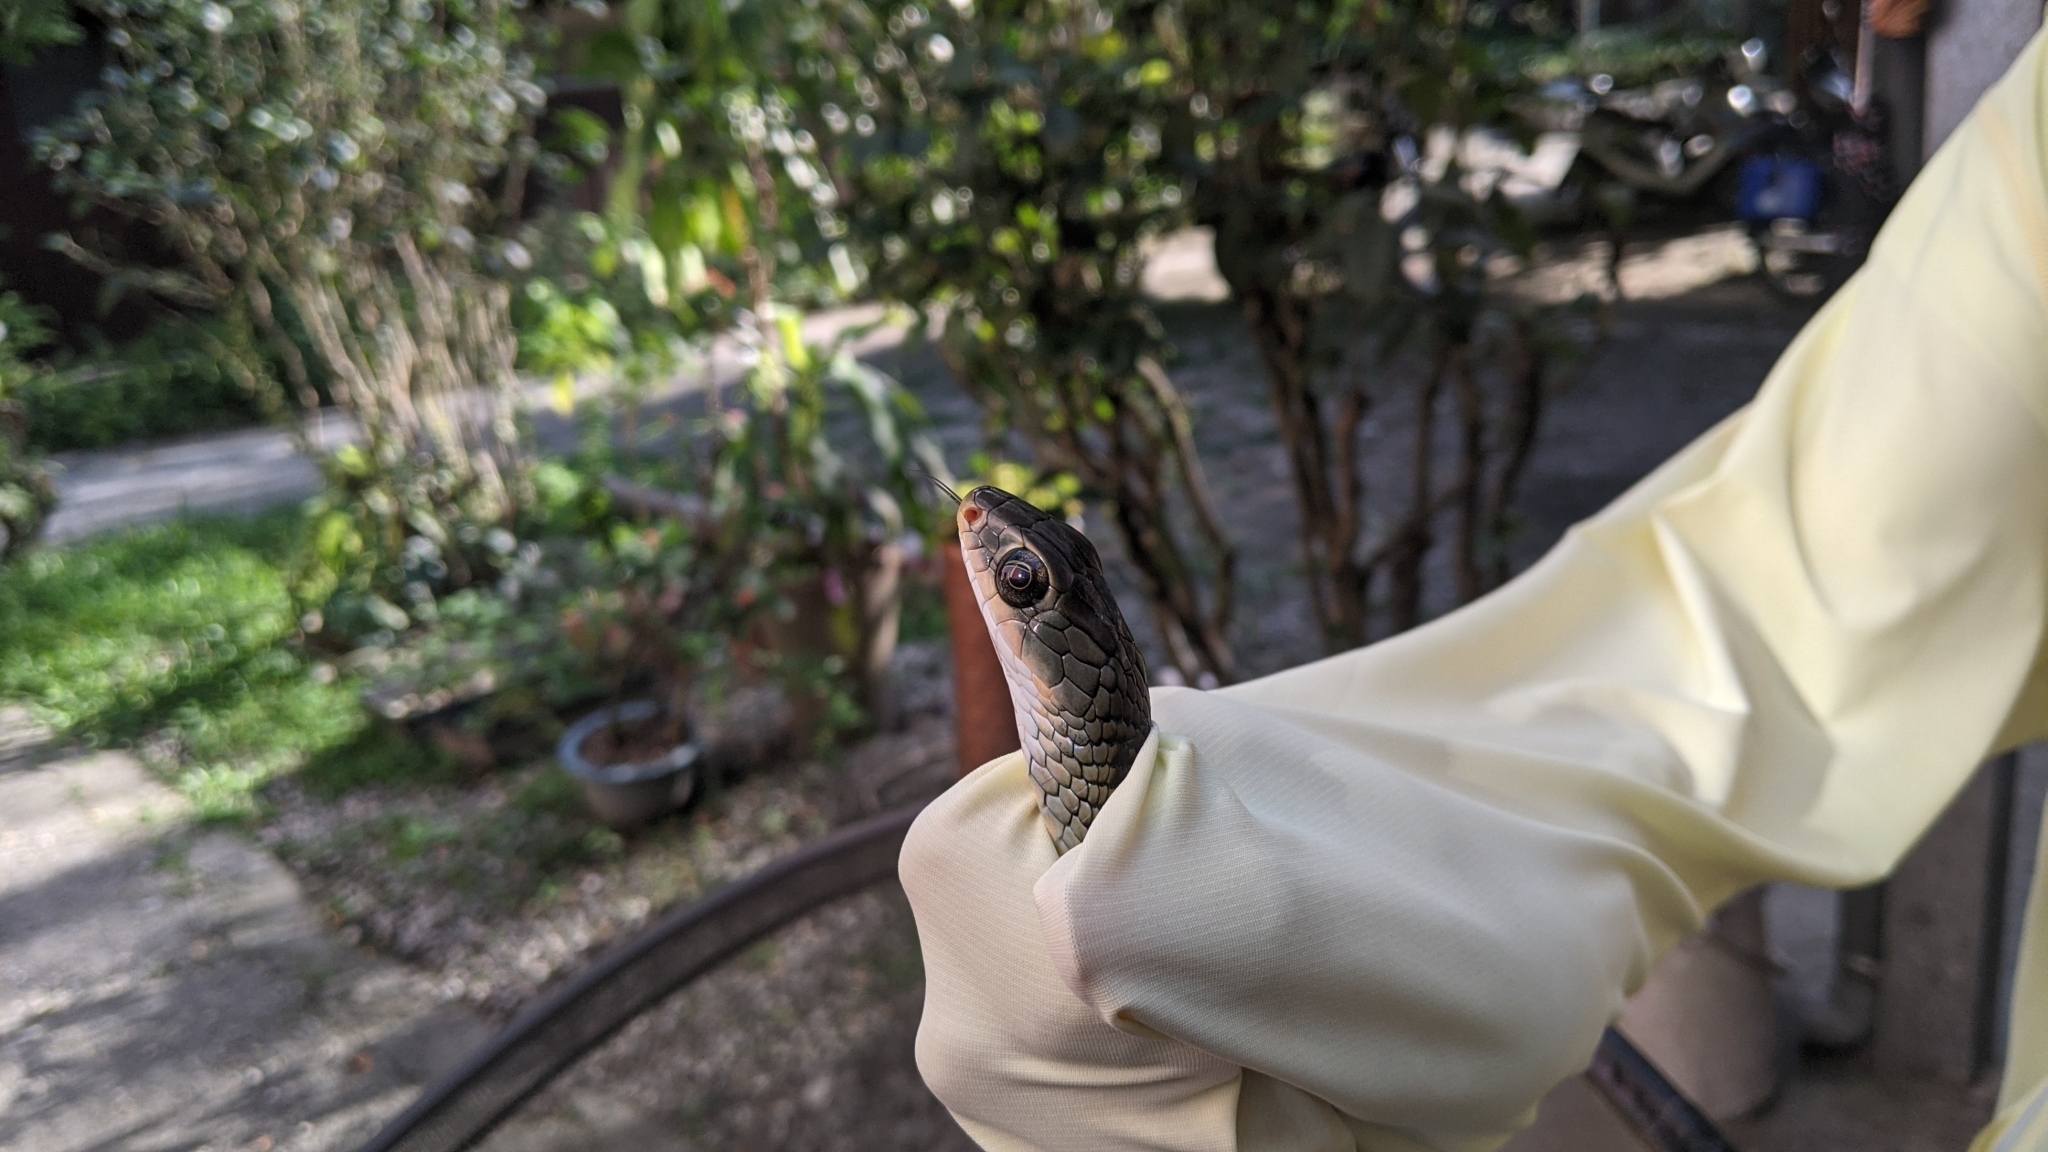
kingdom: Animalia
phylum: Chordata
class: Squamata
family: Colubridae
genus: Ptyas
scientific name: Ptyas dhumnades
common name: Black-striped rat snake
